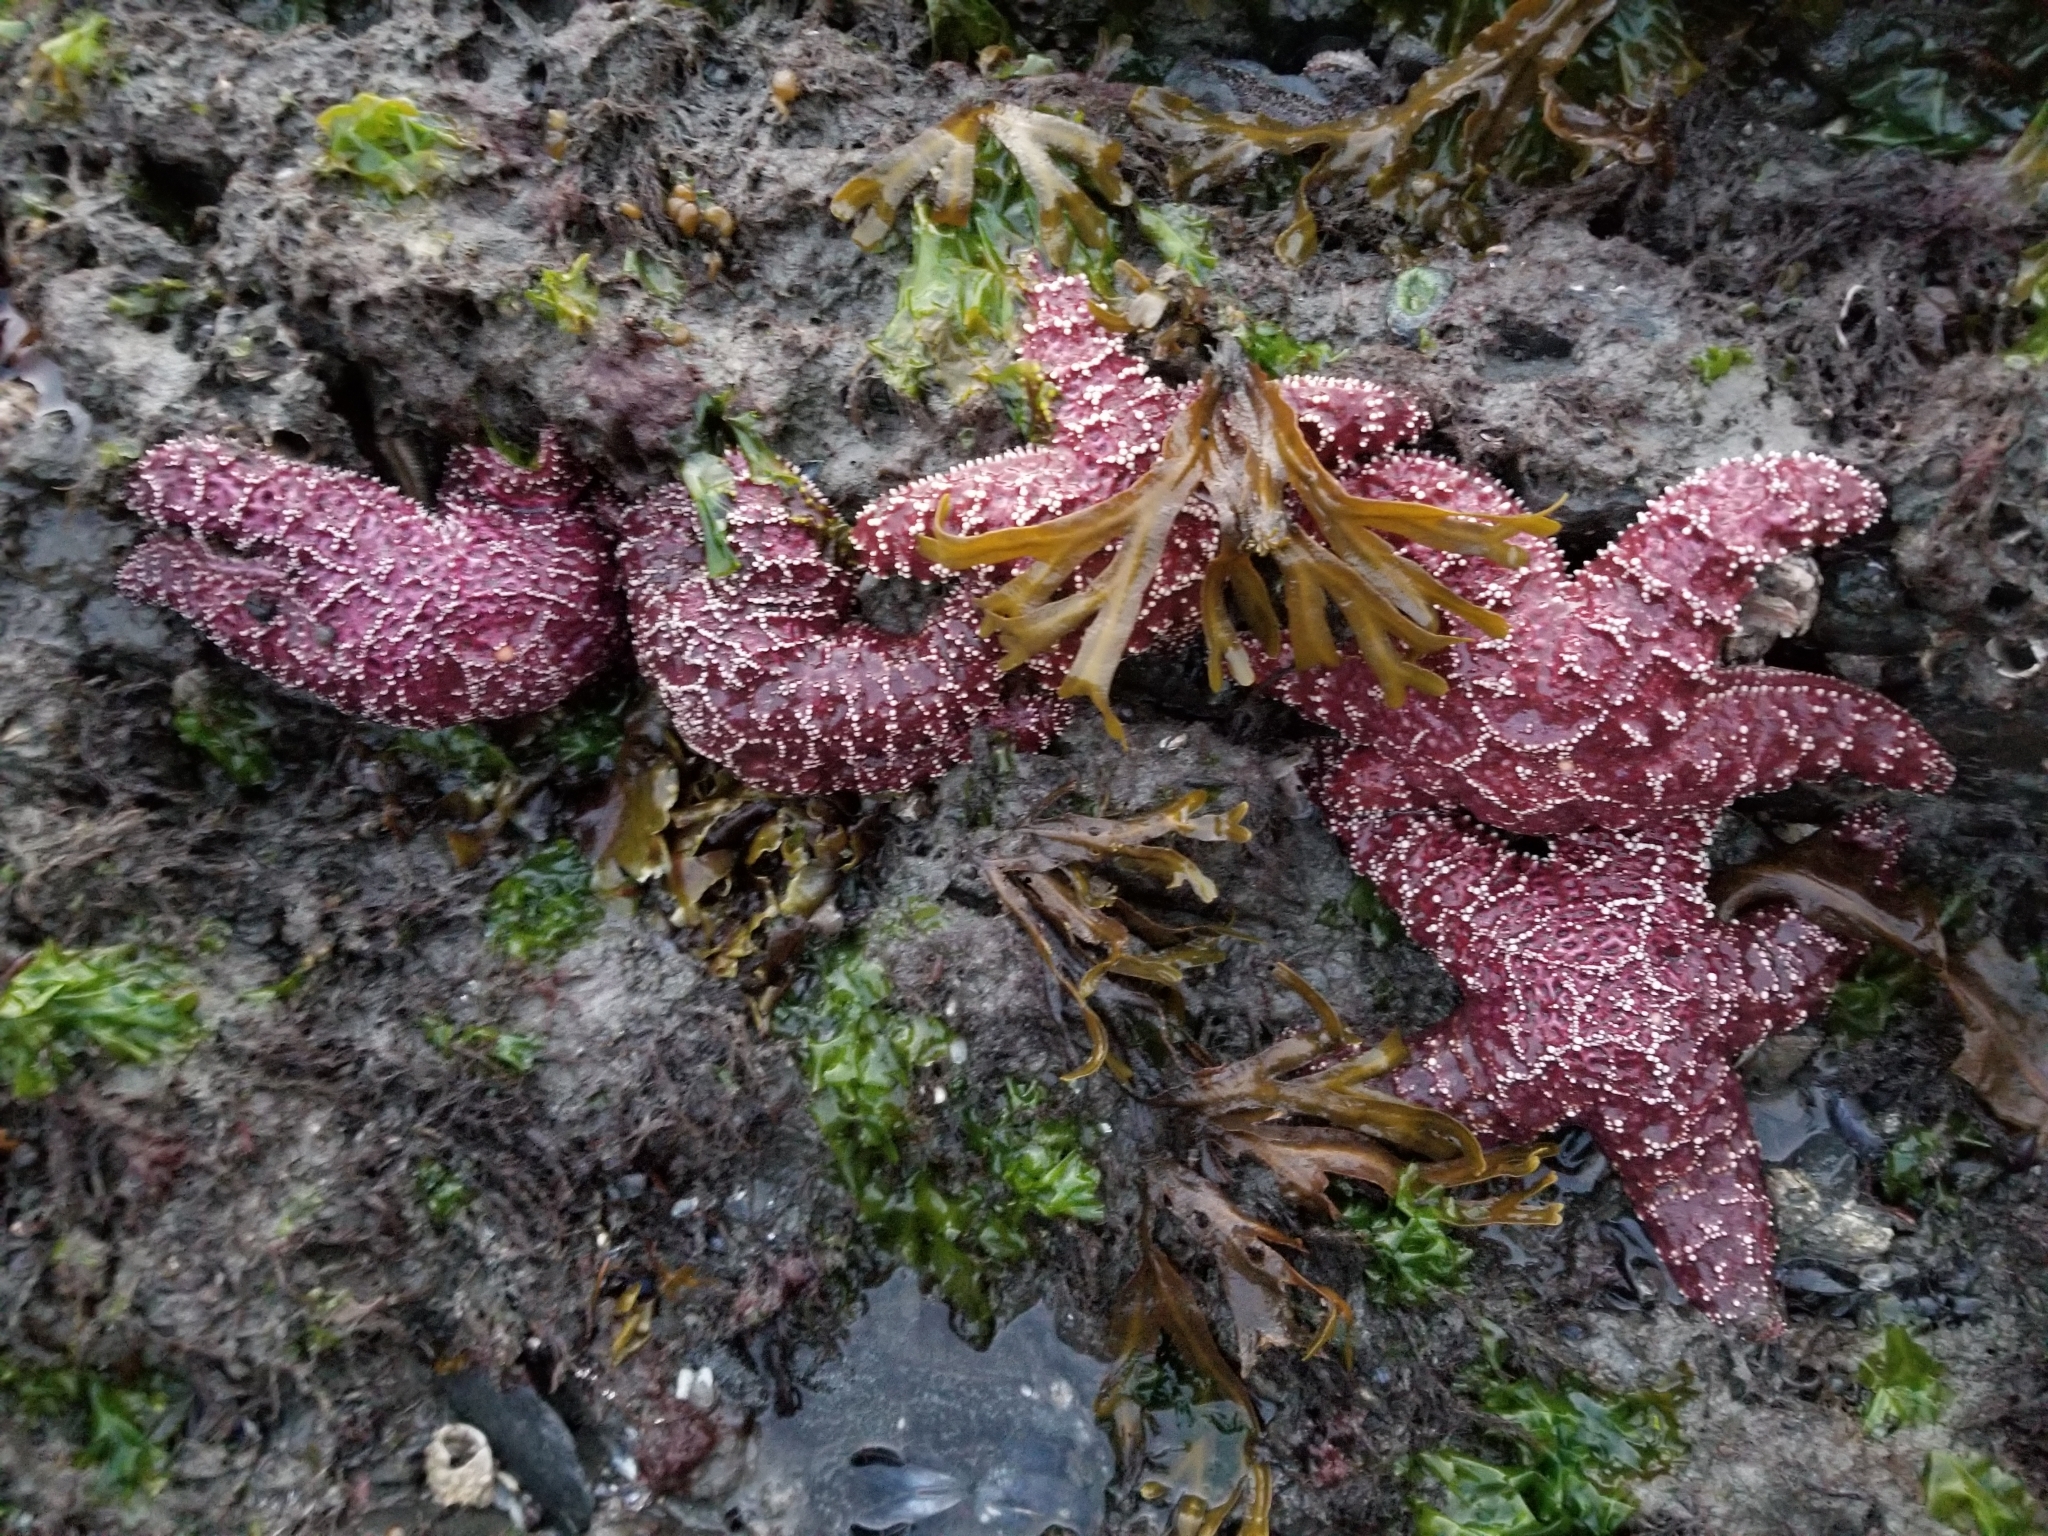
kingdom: Animalia
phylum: Echinodermata
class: Asteroidea
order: Forcipulatida
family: Asteriidae
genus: Pisaster
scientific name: Pisaster ochraceus
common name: Ochre stars
